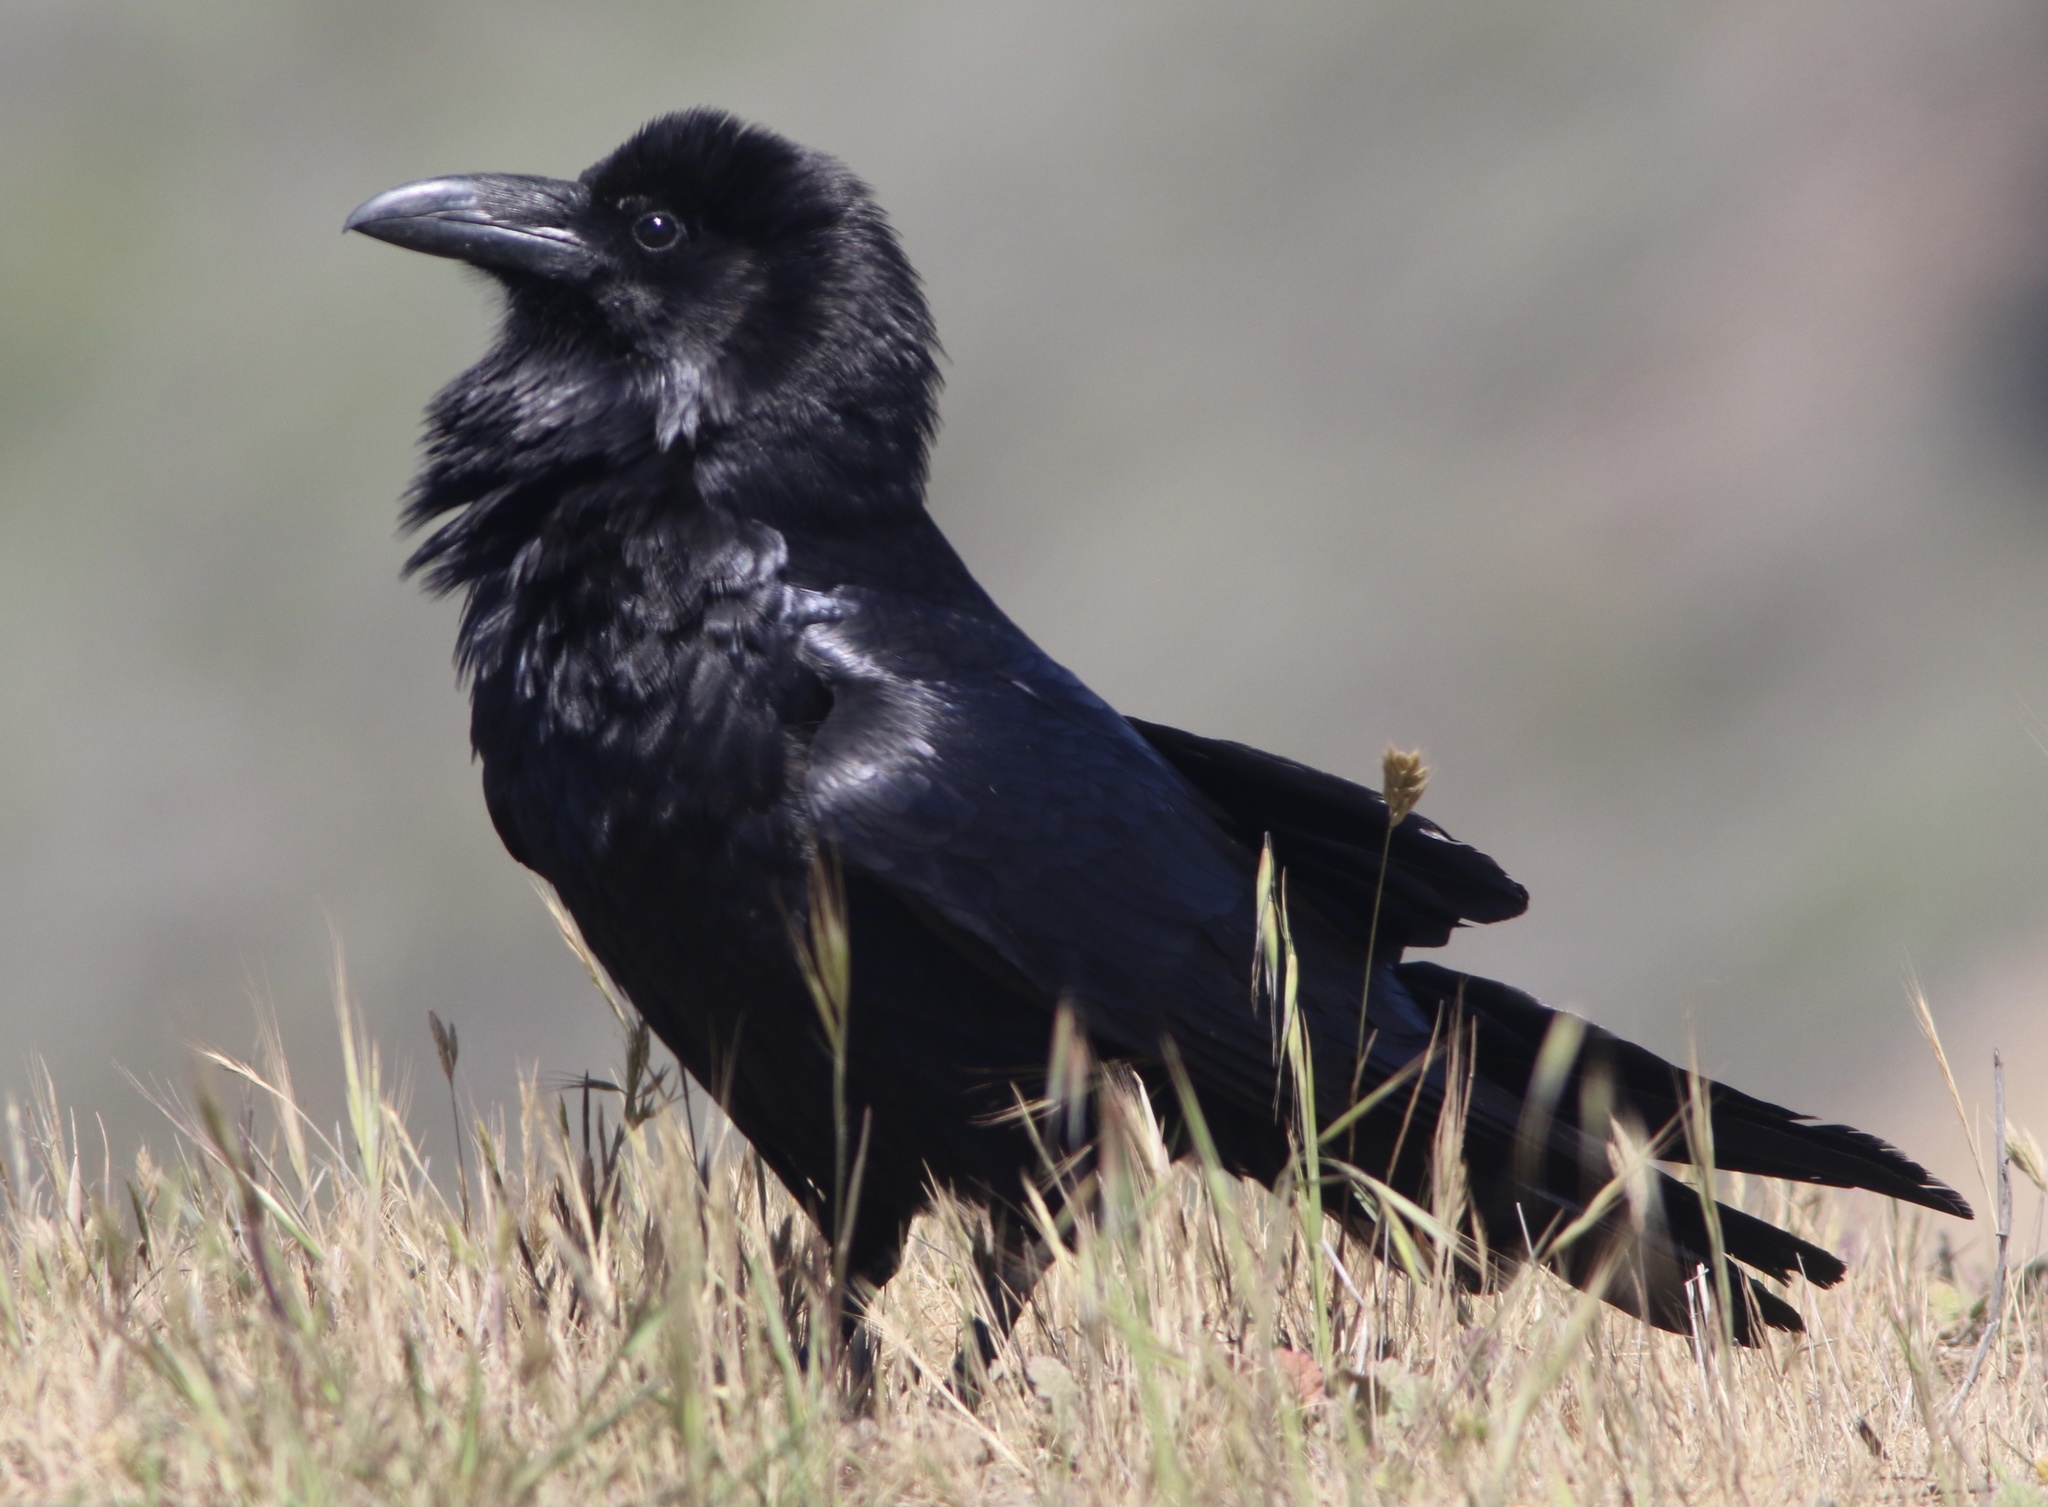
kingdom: Animalia
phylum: Chordata
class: Aves
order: Passeriformes
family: Corvidae
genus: Corvus
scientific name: Corvus corax
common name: Common raven
